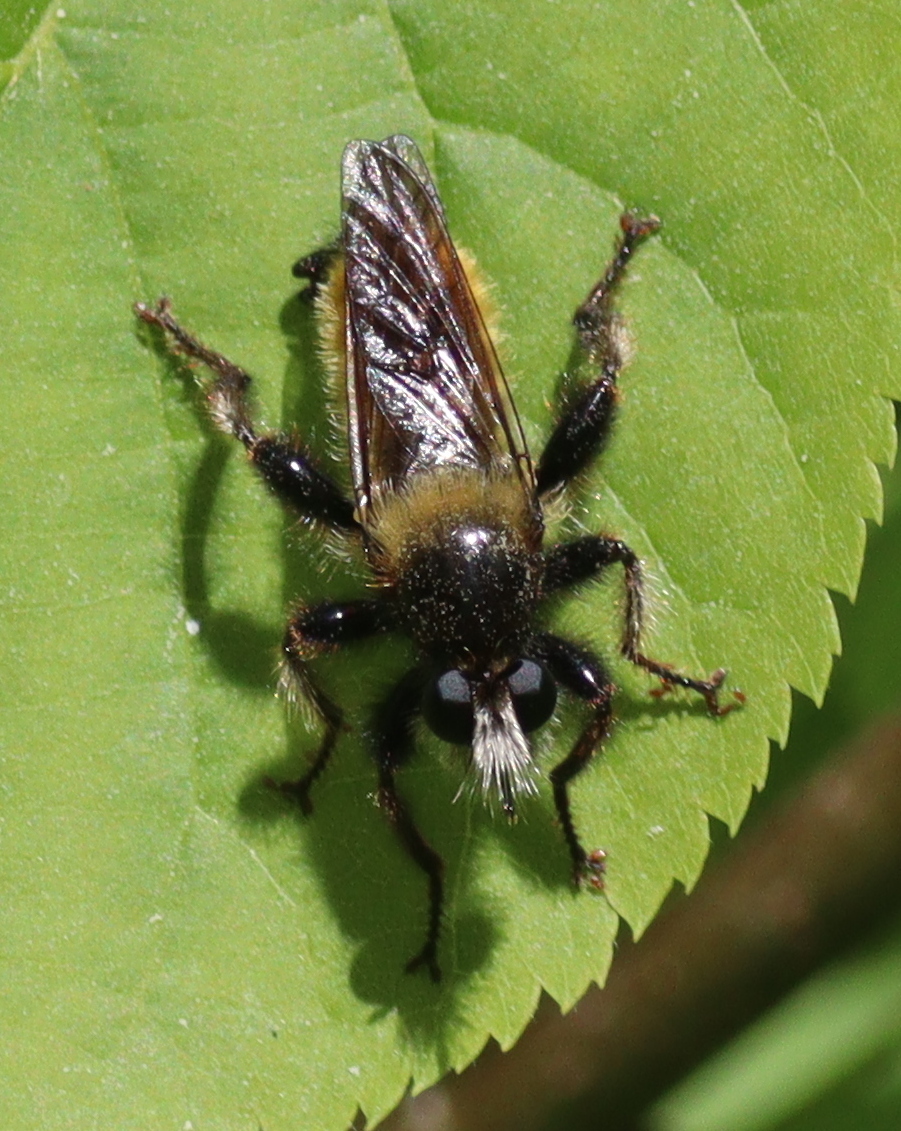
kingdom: Animalia
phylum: Arthropoda
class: Insecta
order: Diptera
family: Asilidae
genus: Laphria
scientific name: Laphria flava
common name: Bumblebee robberfly
